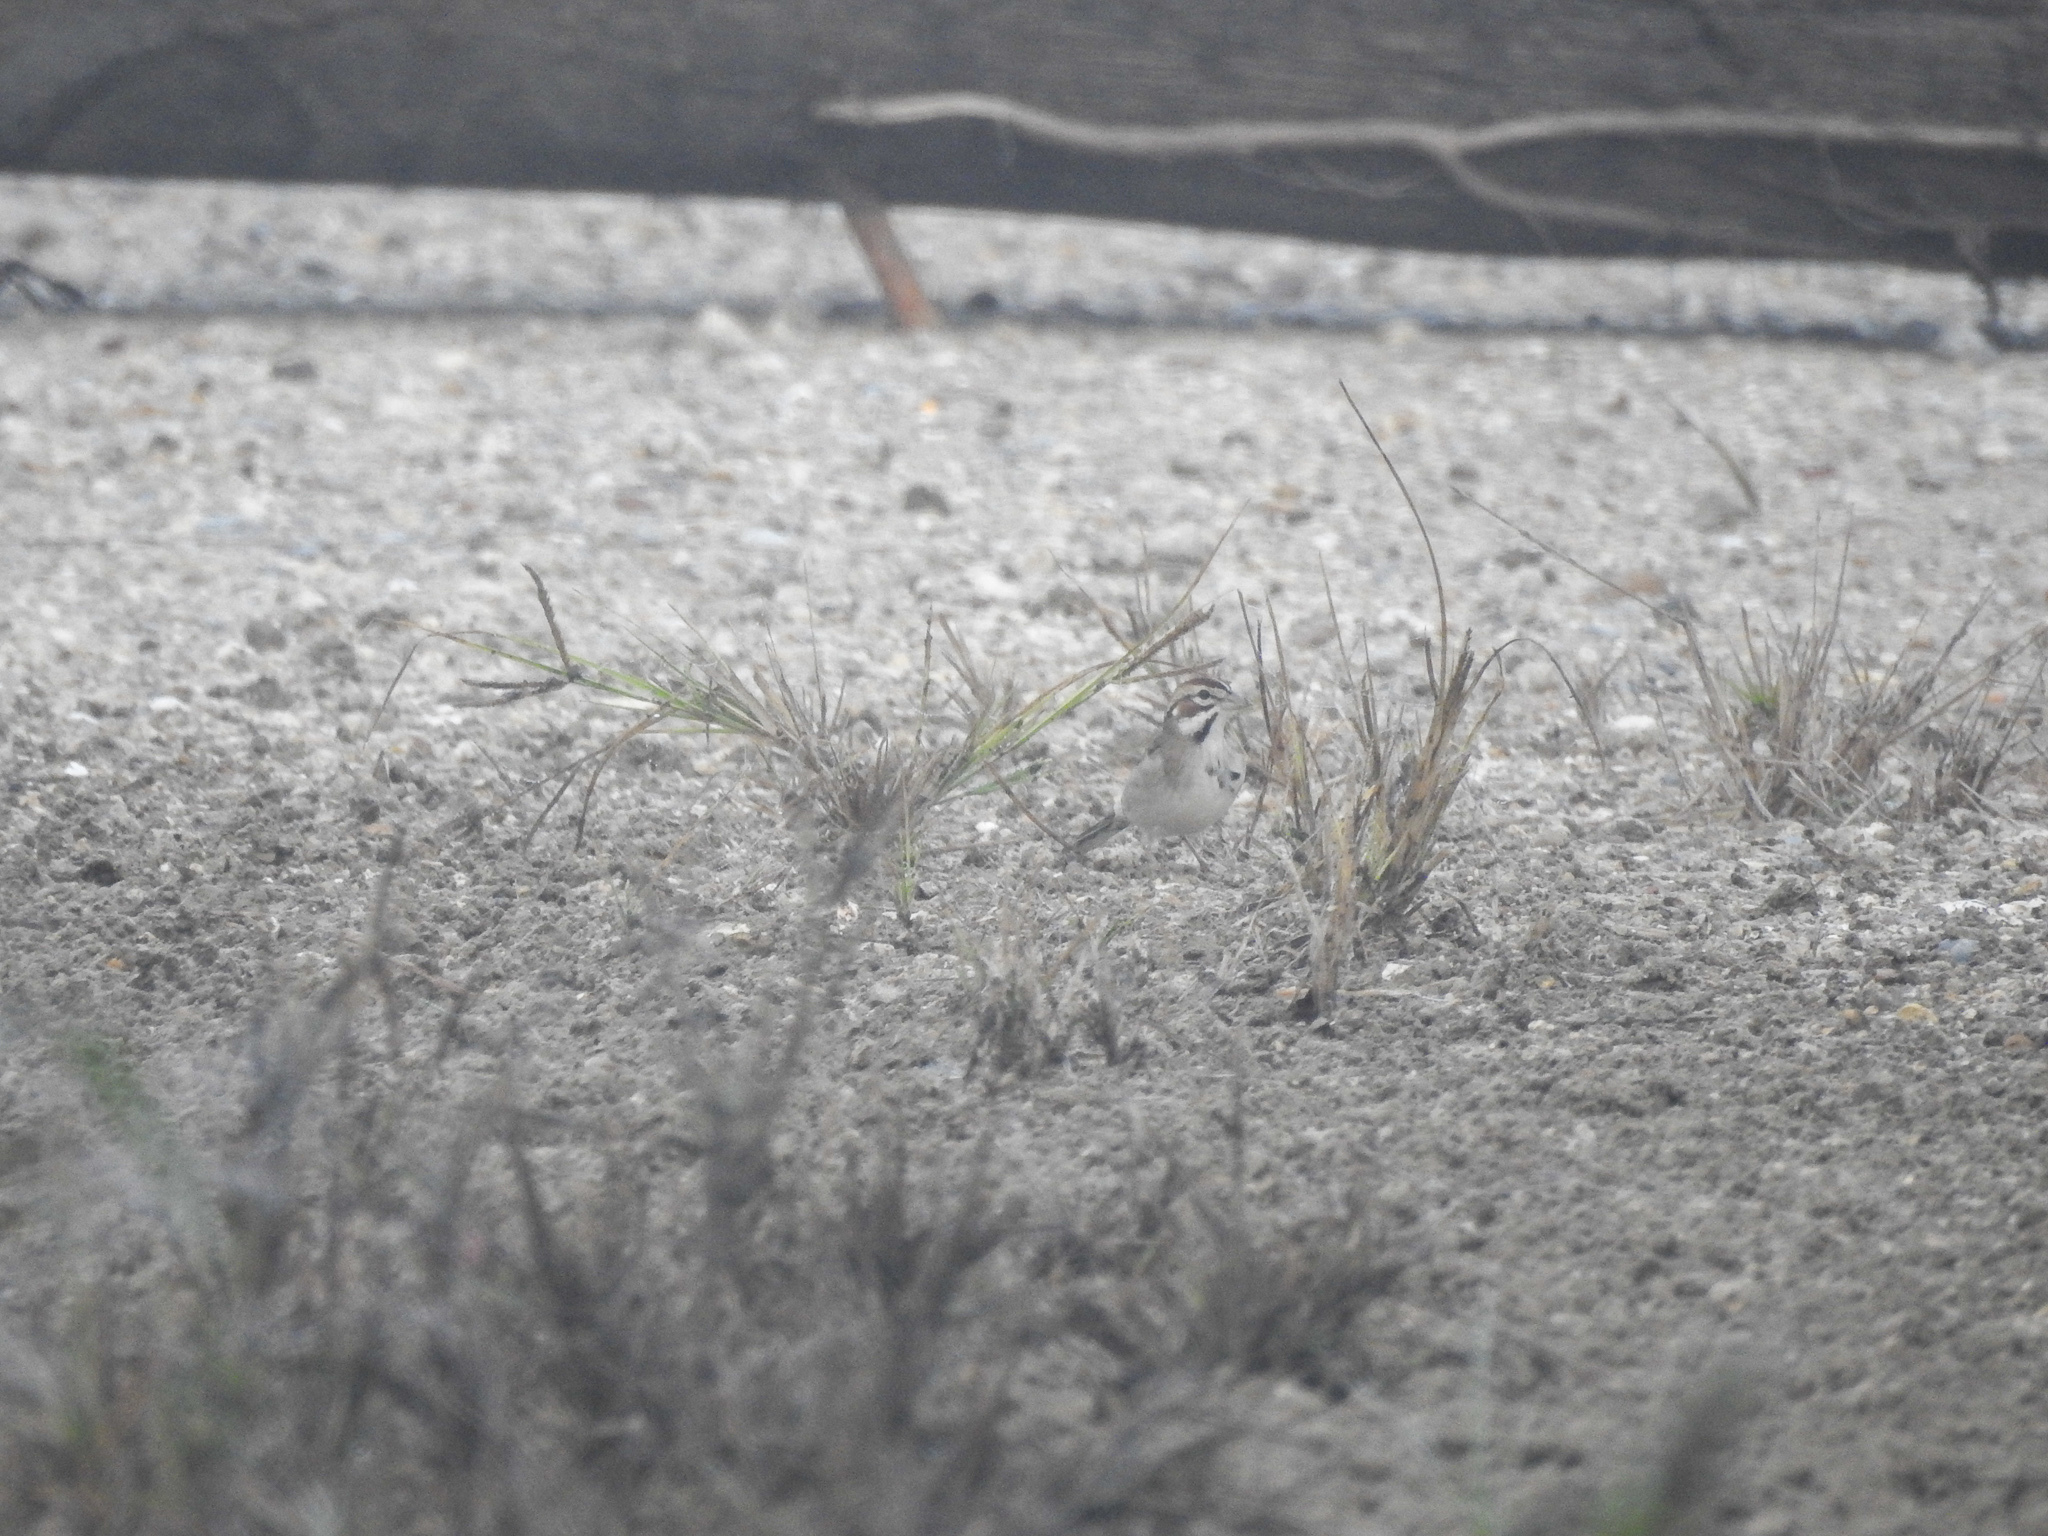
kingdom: Animalia
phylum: Chordata
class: Aves
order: Passeriformes
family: Passerellidae
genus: Chondestes
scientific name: Chondestes grammacus
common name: Lark sparrow
